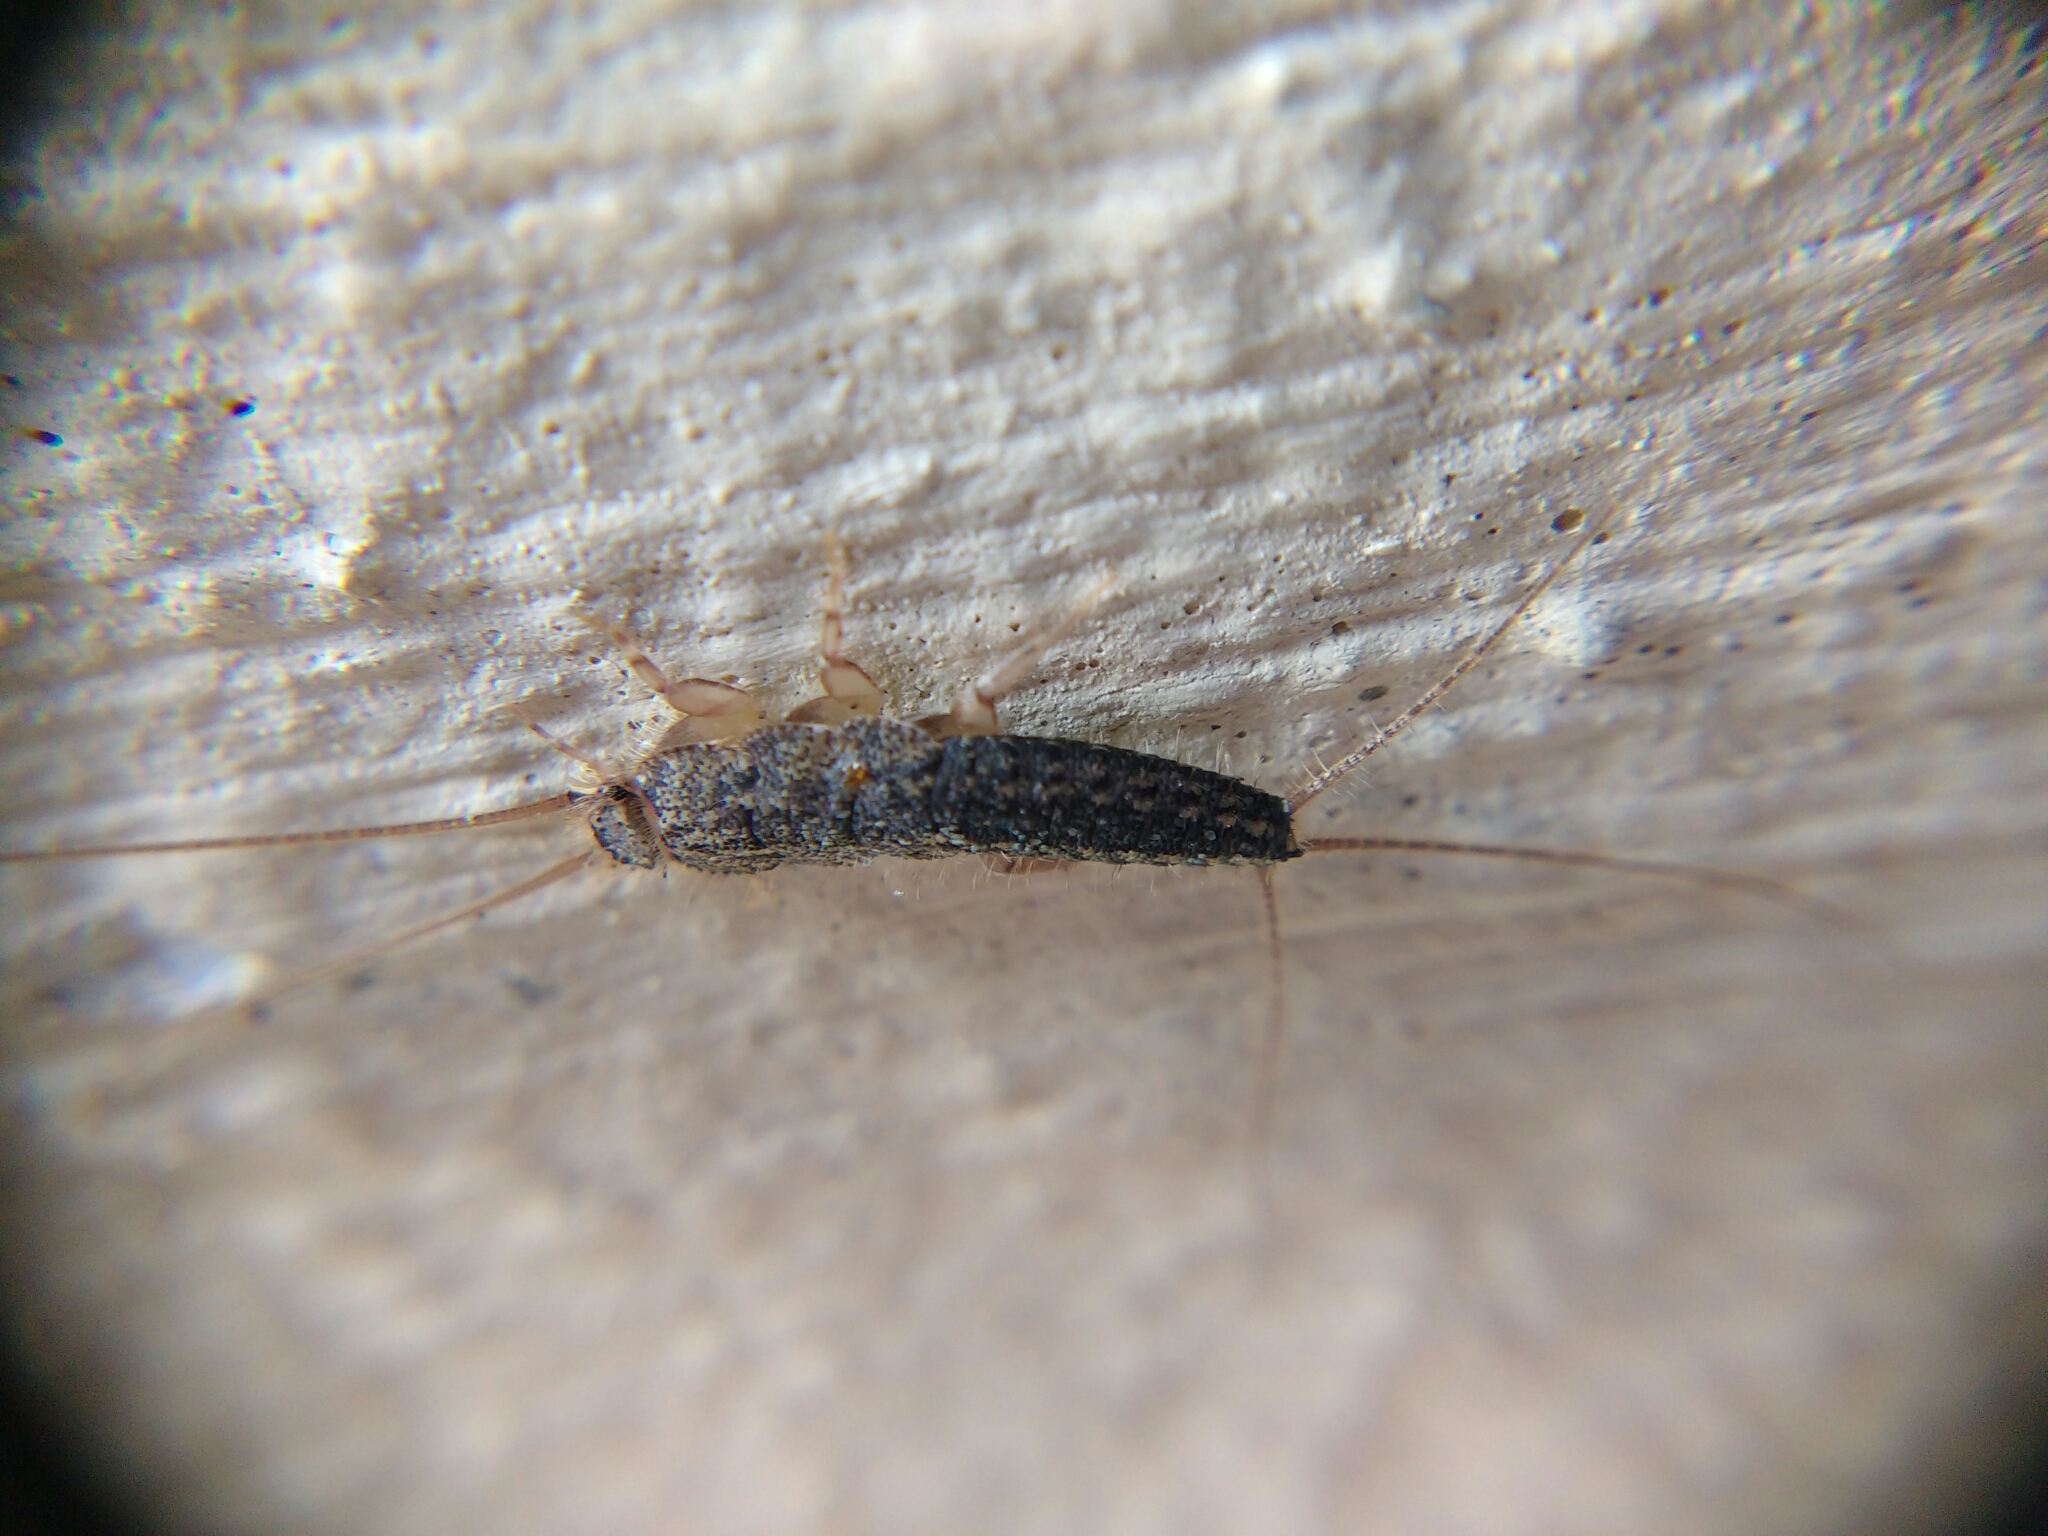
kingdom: Animalia
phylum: Arthropoda
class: Insecta
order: Zygentoma
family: Lepismatidae
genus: Ctenolepisma
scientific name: Ctenolepisma longicaudatum
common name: Silverfish
